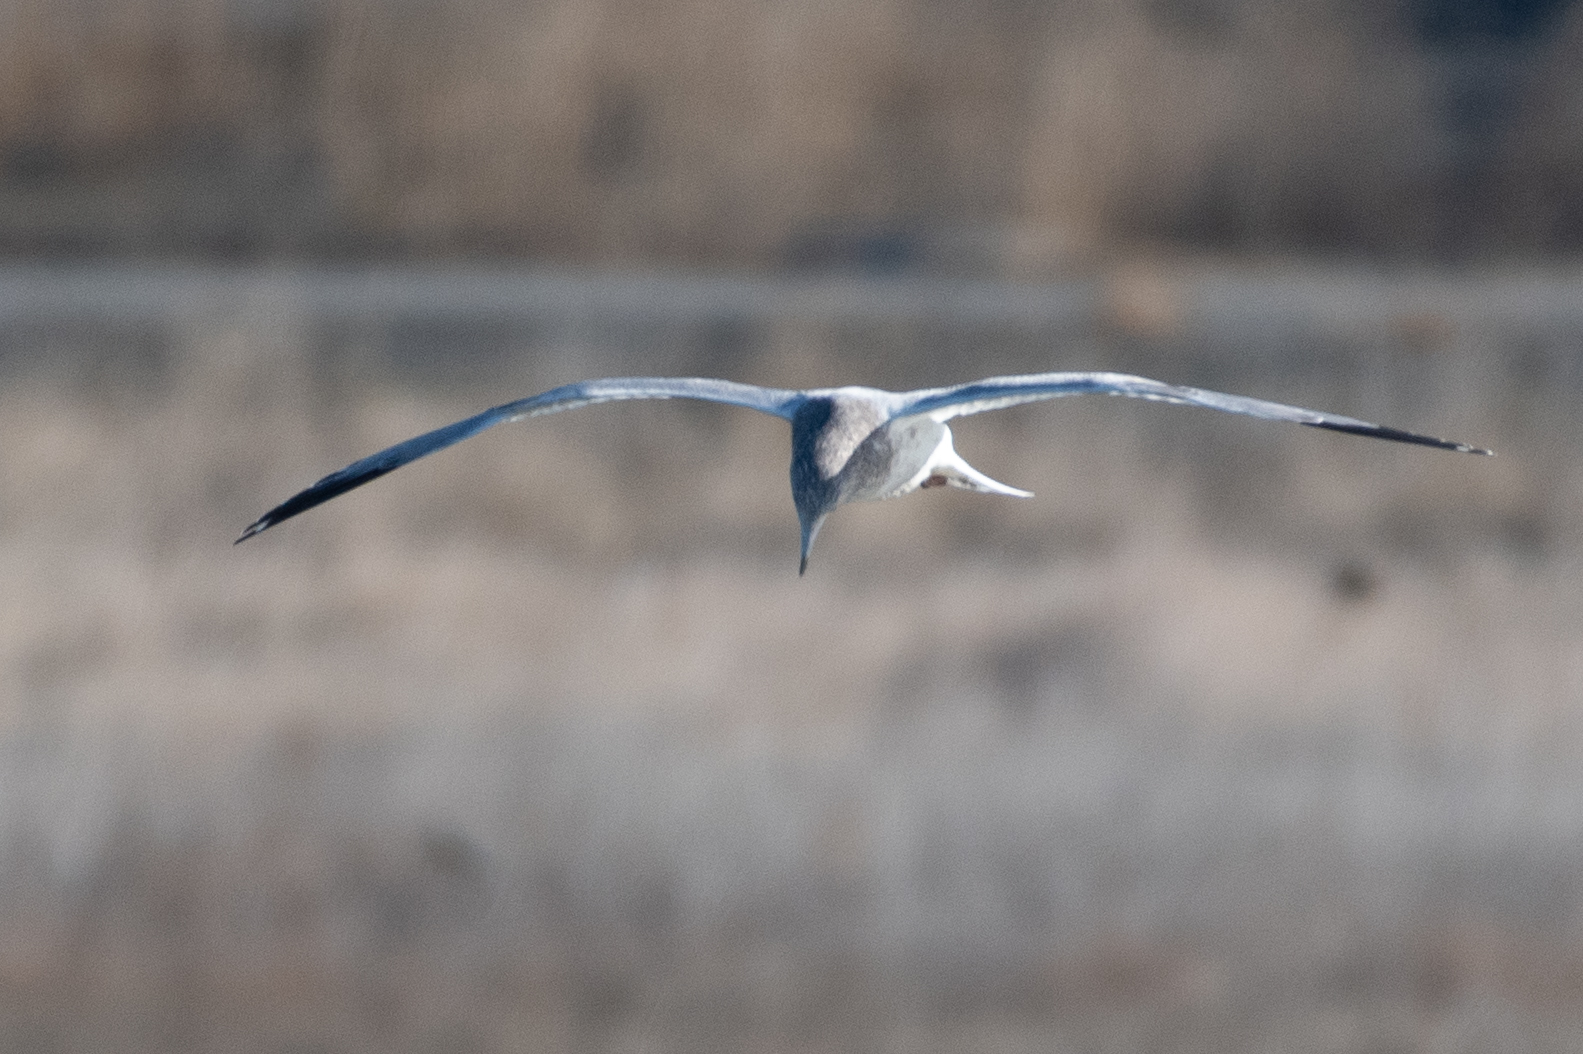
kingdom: Animalia
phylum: Chordata
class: Aves
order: Charadriiformes
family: Laridae
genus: Larus
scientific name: Larus
